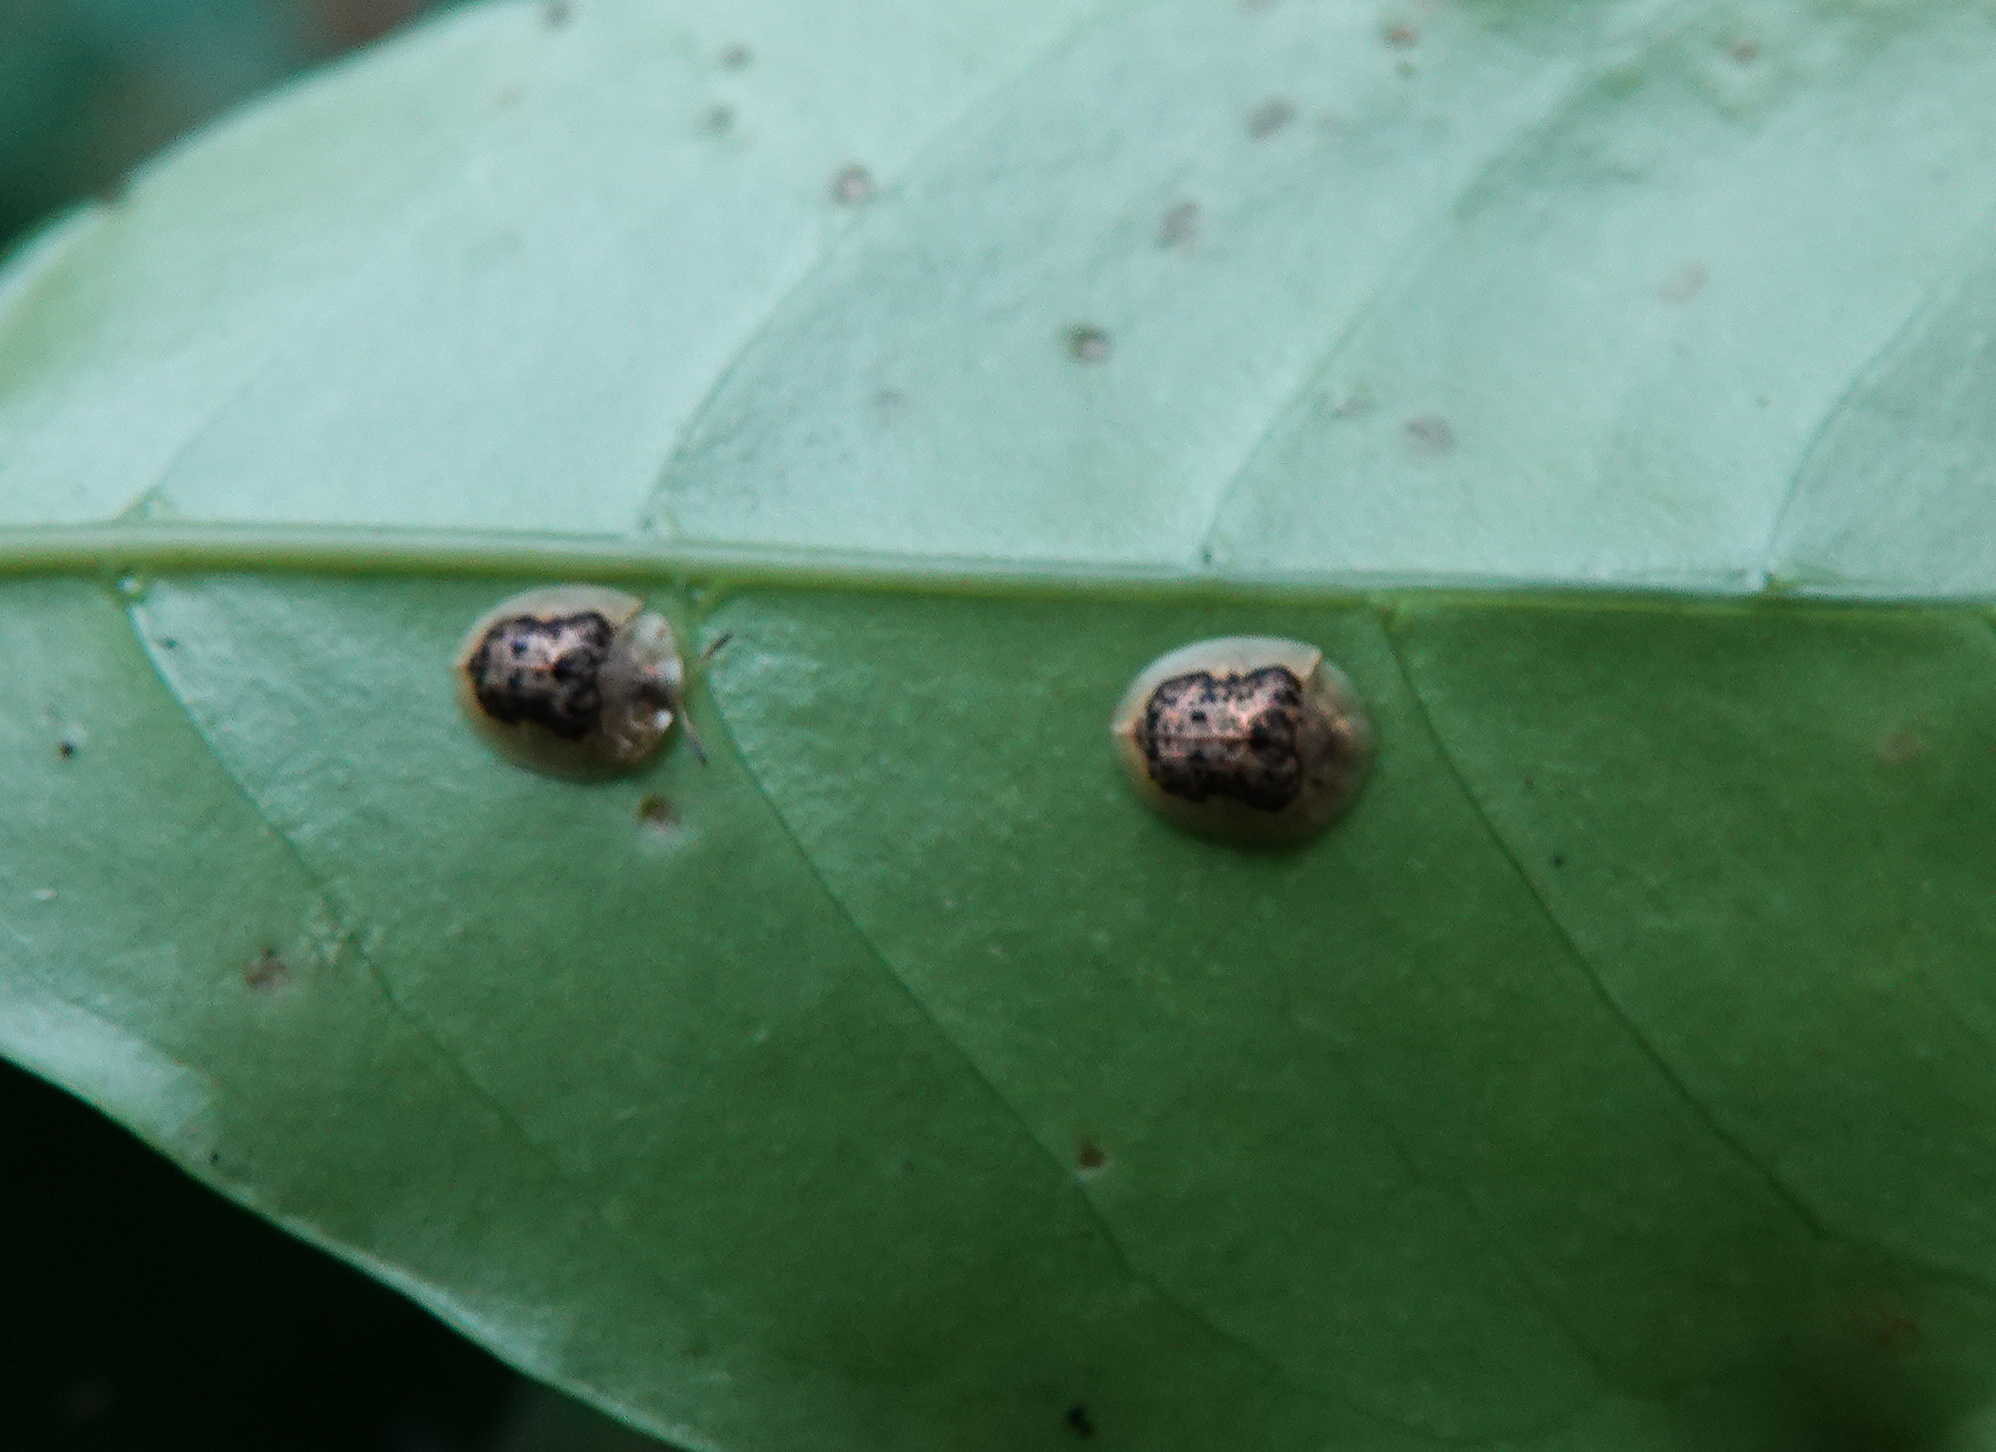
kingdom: Animalia
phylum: Arthropoda
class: Insecta
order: Coleoptera
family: Chrysomelidae
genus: Cassida
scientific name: Cassida occursans
